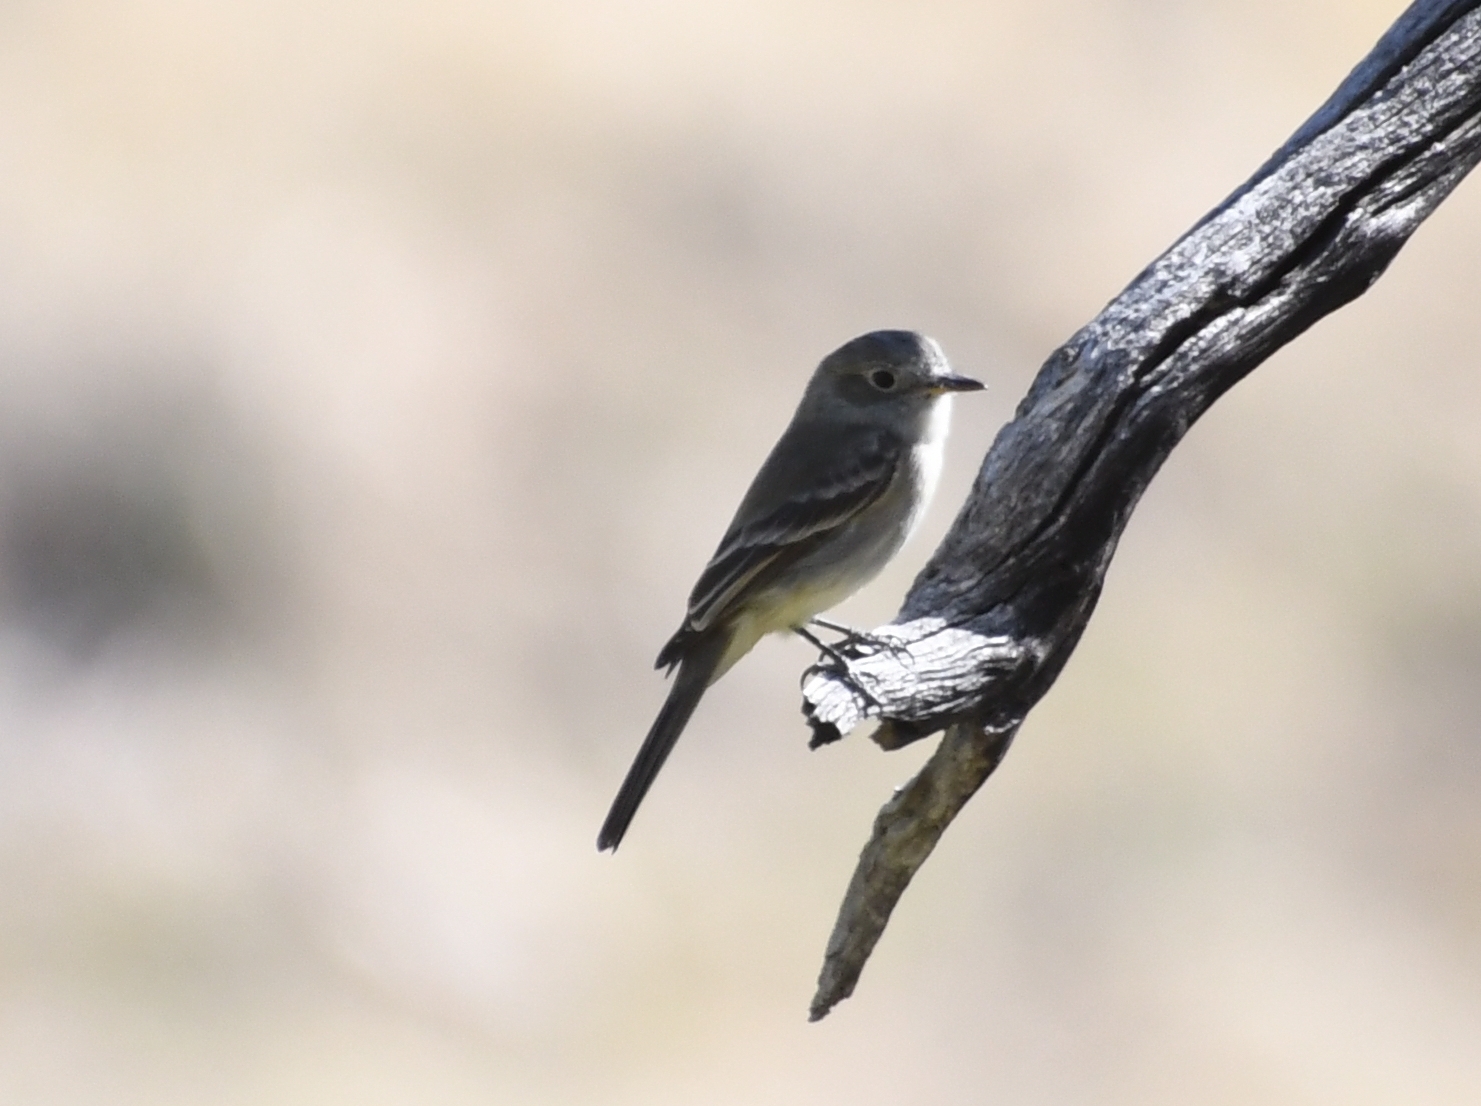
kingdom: Animalia
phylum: Chordata
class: Aves
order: Passeriformes
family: Tyrannidae
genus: Empidonax
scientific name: Empidonax wrightii
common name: Gray flycatcher
